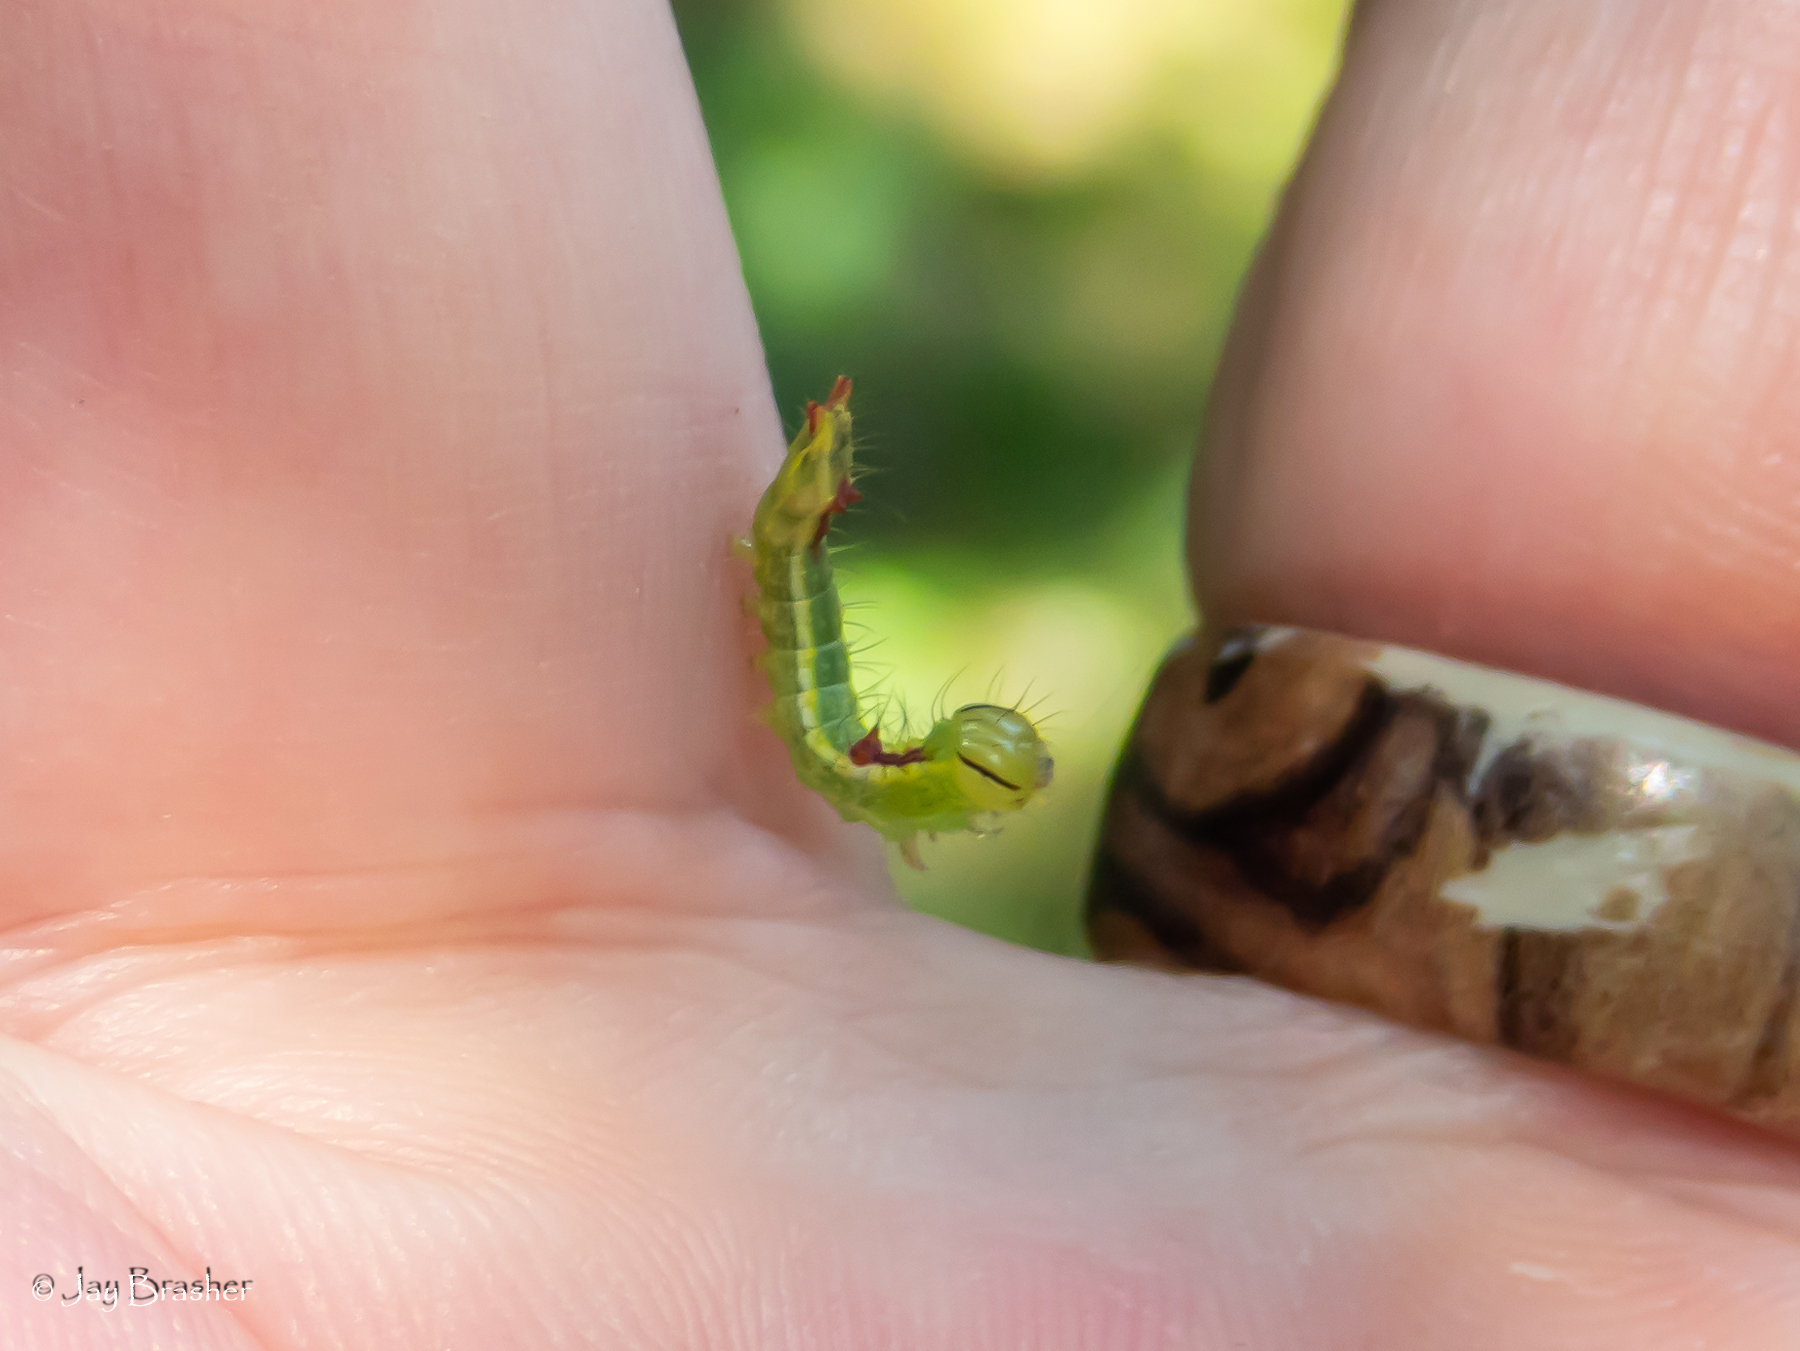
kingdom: Animalia
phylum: Arthropoda
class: Insecta
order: Lepidoptera
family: Notodontidae
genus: Lochmaeus
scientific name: Lochmaeus manteo
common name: Variable oakleaf caterpillar moth
